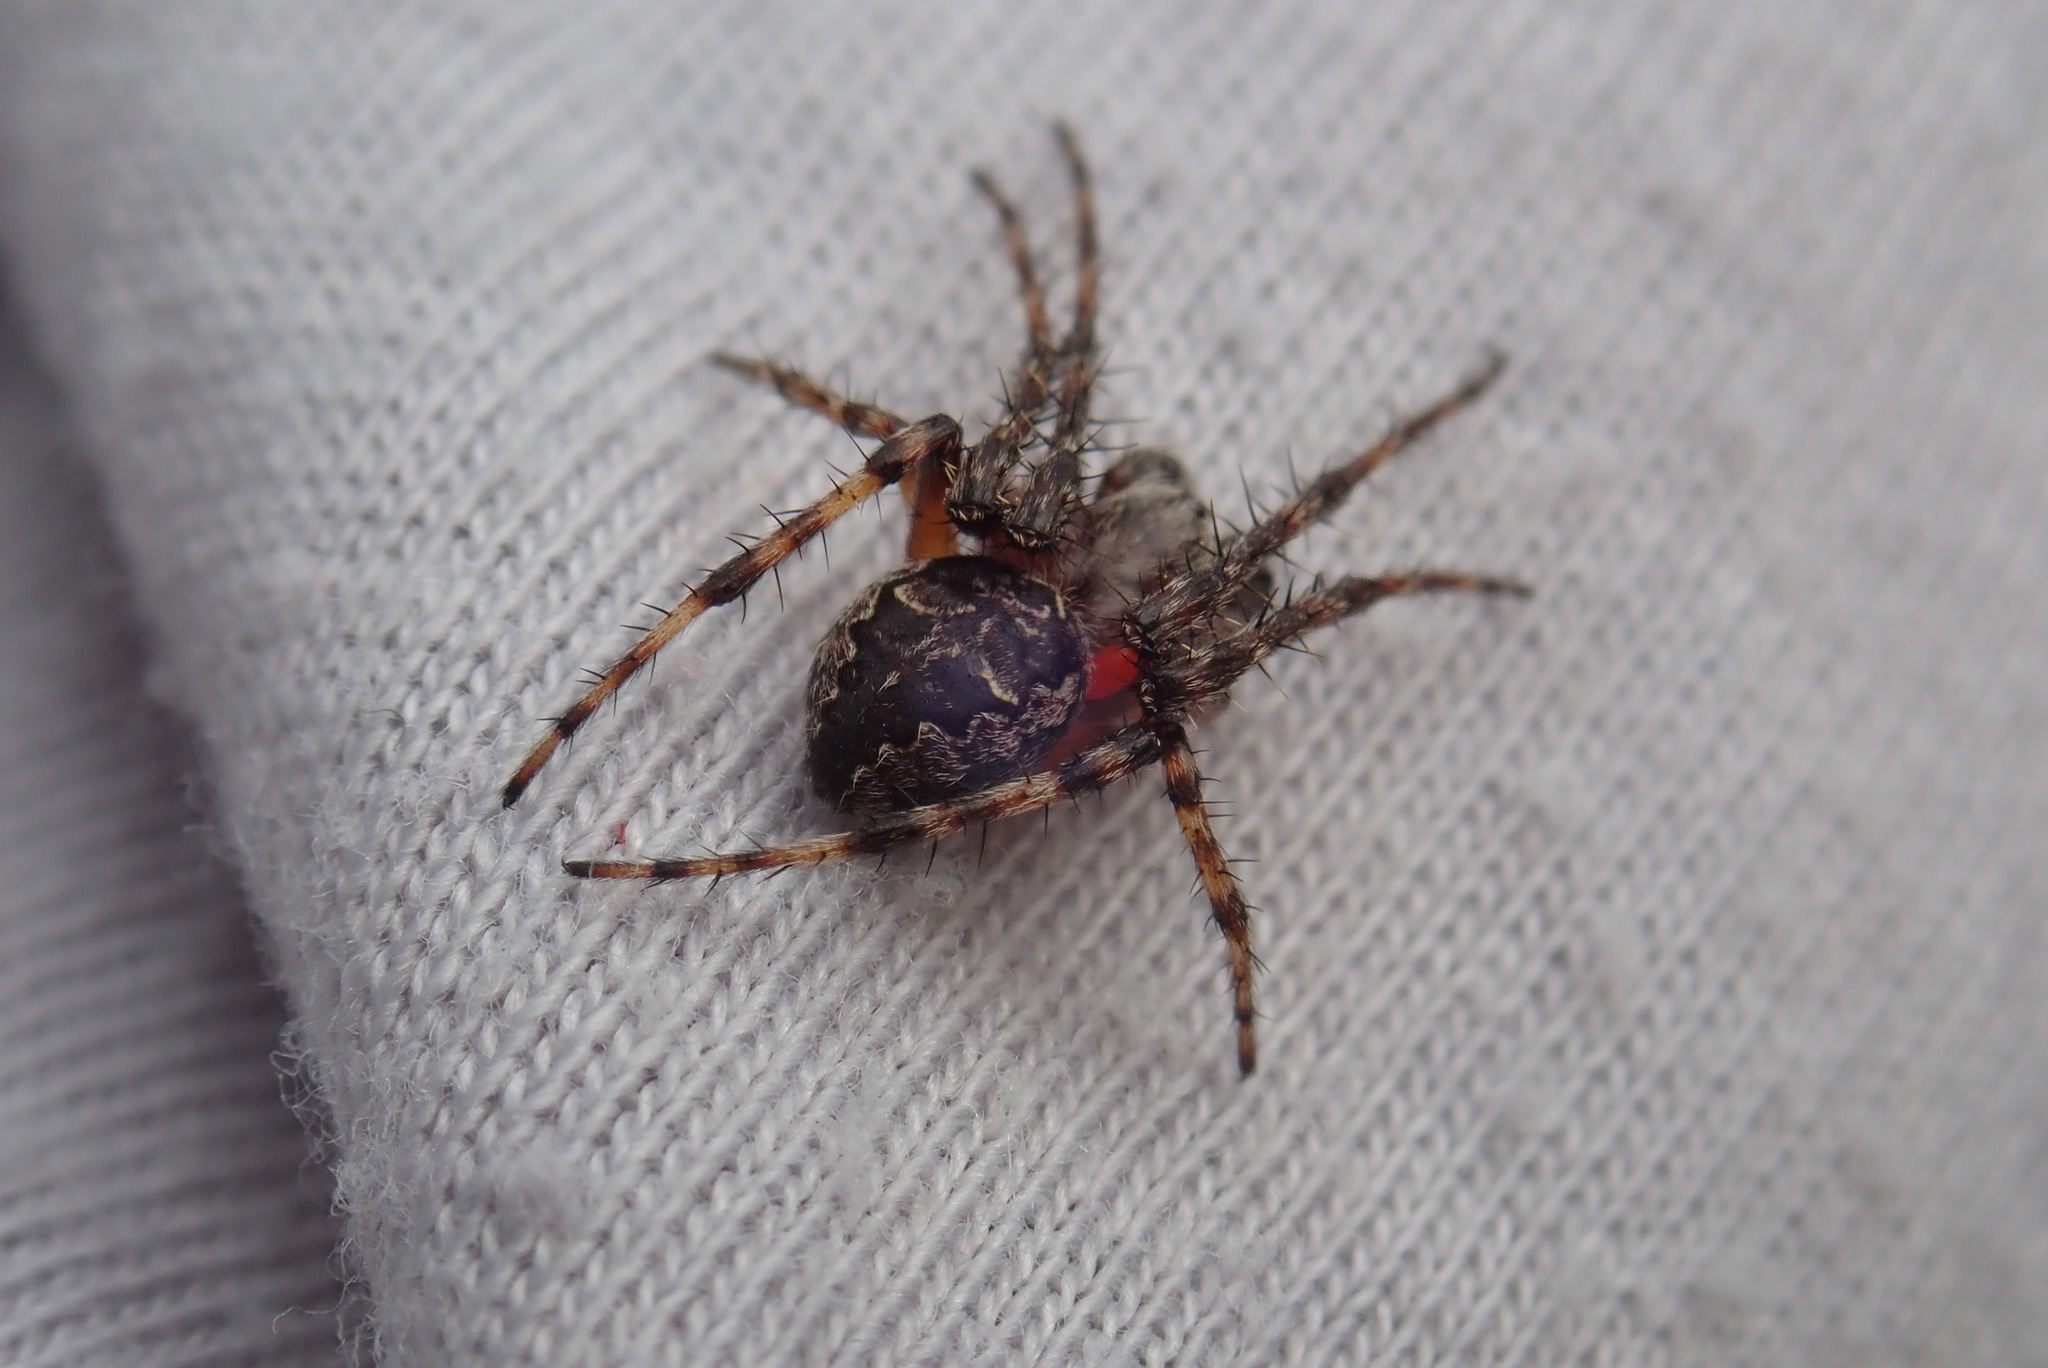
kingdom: Animalia
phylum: Arthropoda
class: Arachnida
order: Araneae
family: Araneidae
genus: Larinioides
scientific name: Larinioides patagiatus
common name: Ornamental orbweaver
